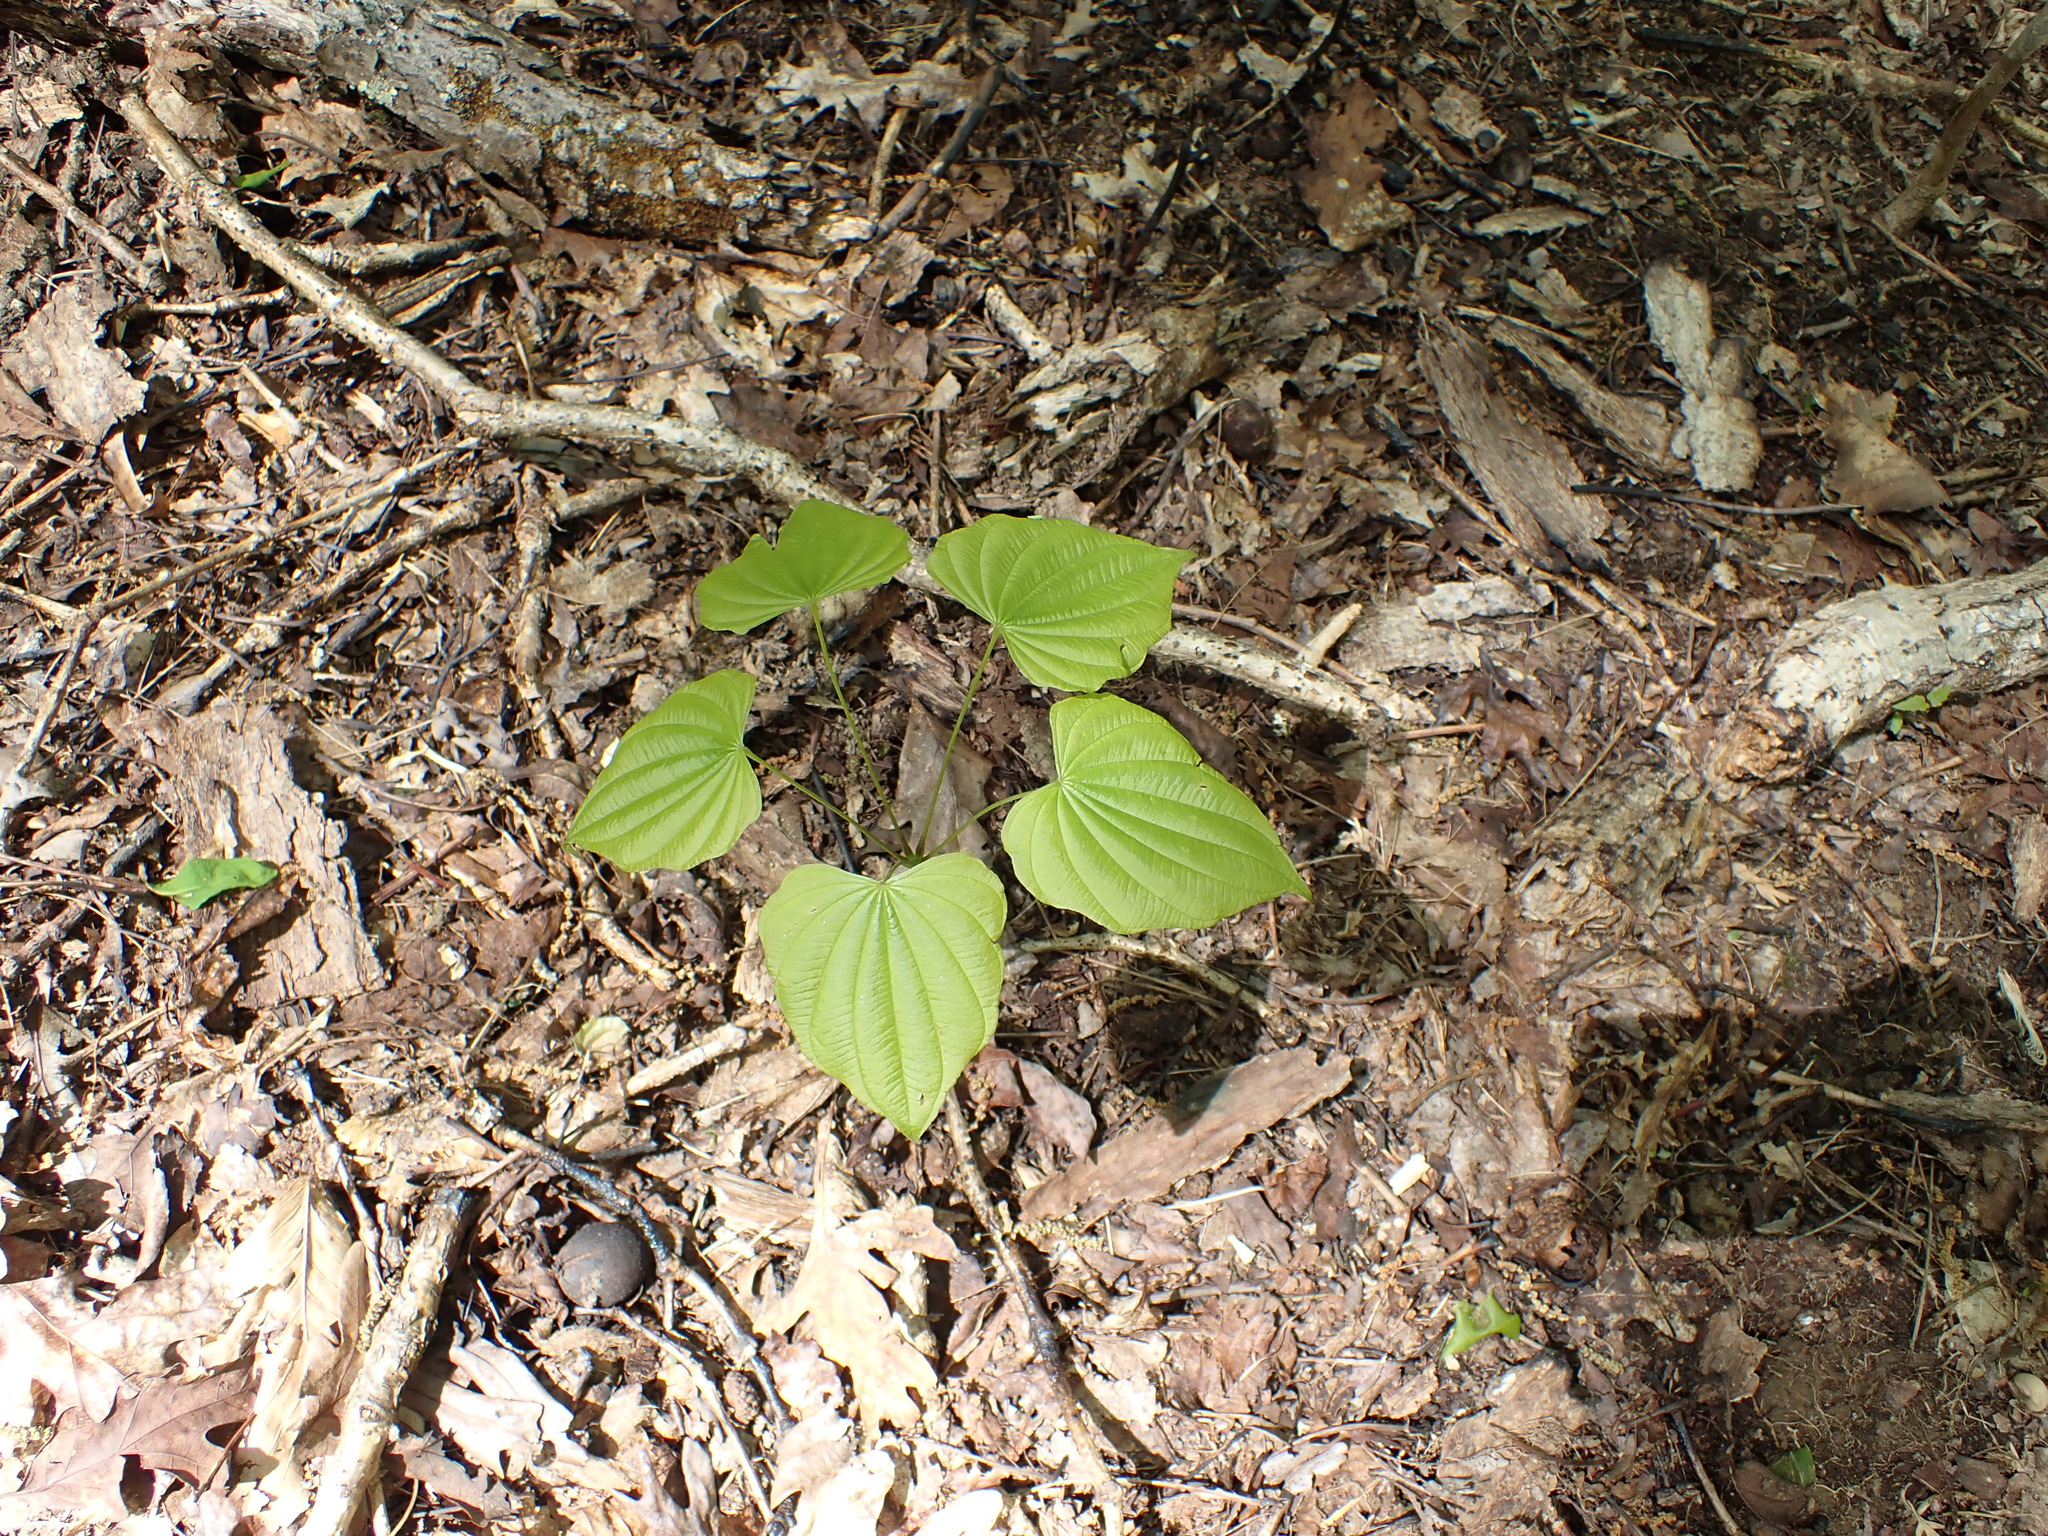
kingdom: Plantae
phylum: Tracheophyta
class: Liliopsida
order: Dioscoreales
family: Dioscoreaceae
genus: Dioscorea
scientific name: Dioscorea villosa
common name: Wild yam
